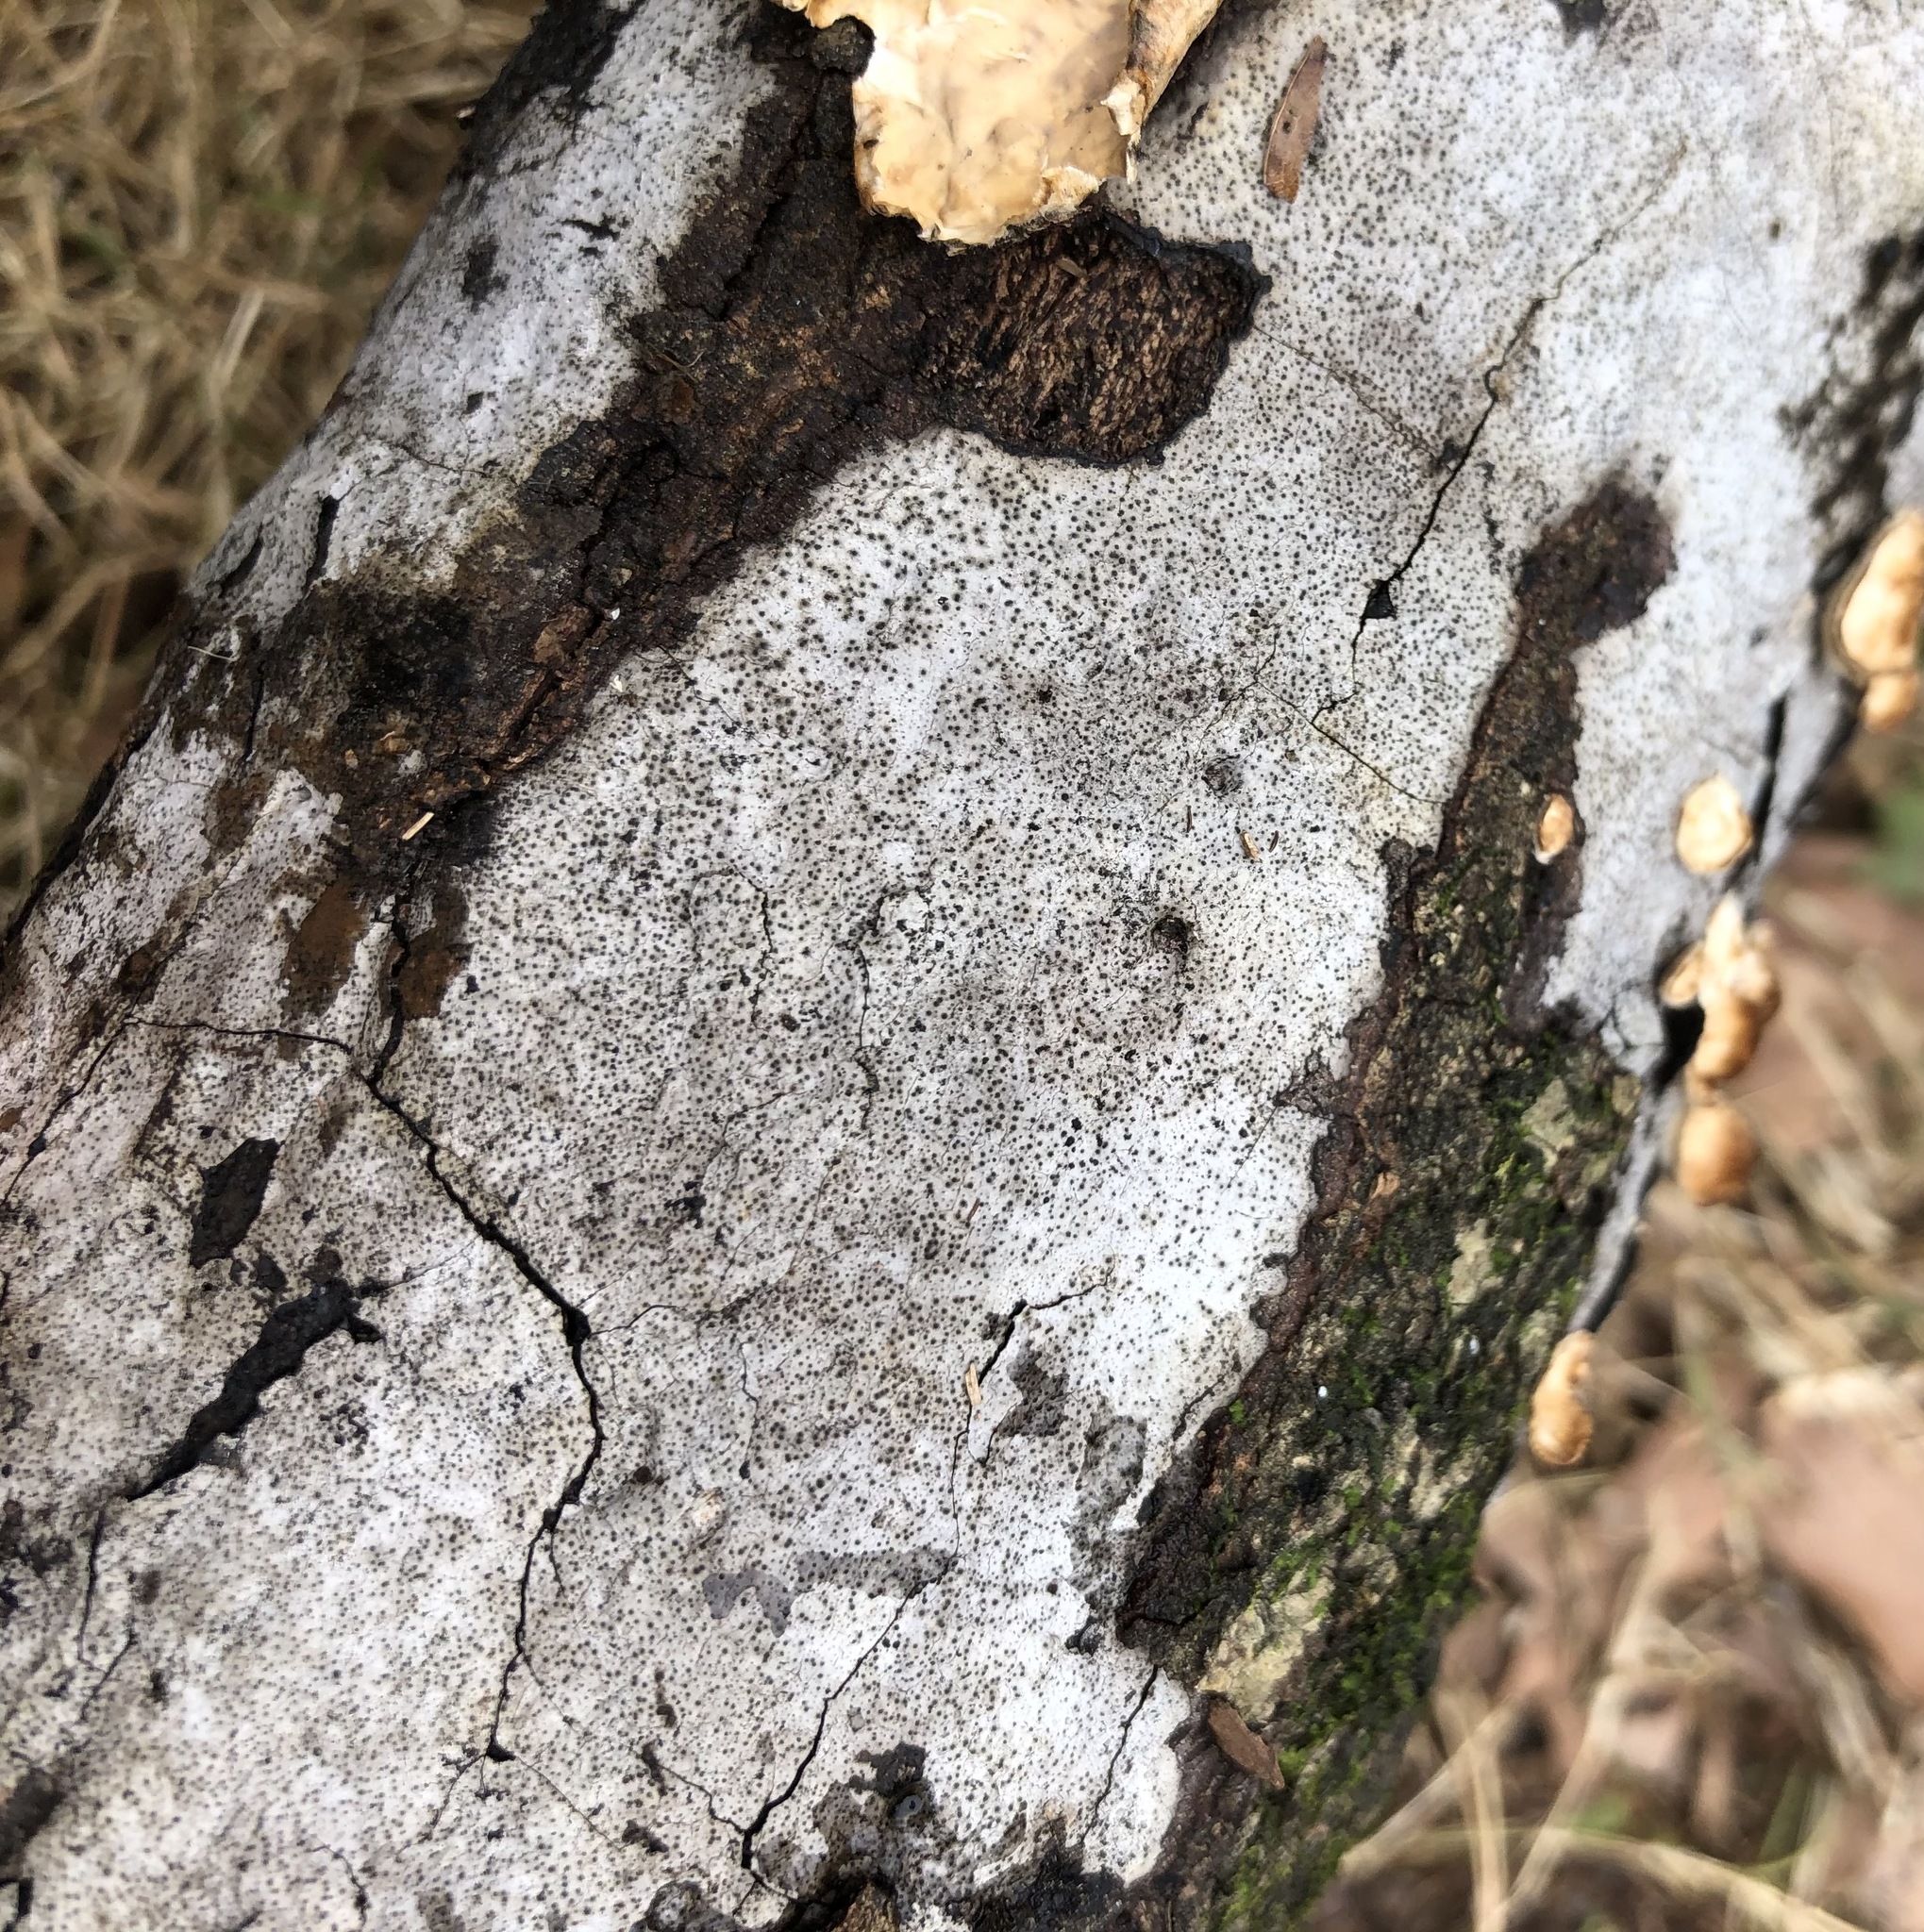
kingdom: Fungi
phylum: Ascomycota
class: Sordariomycetes
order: Xylariales
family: Graphostromataceae
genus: Biscogniauxia
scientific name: Biscogniauxia atropunctata
